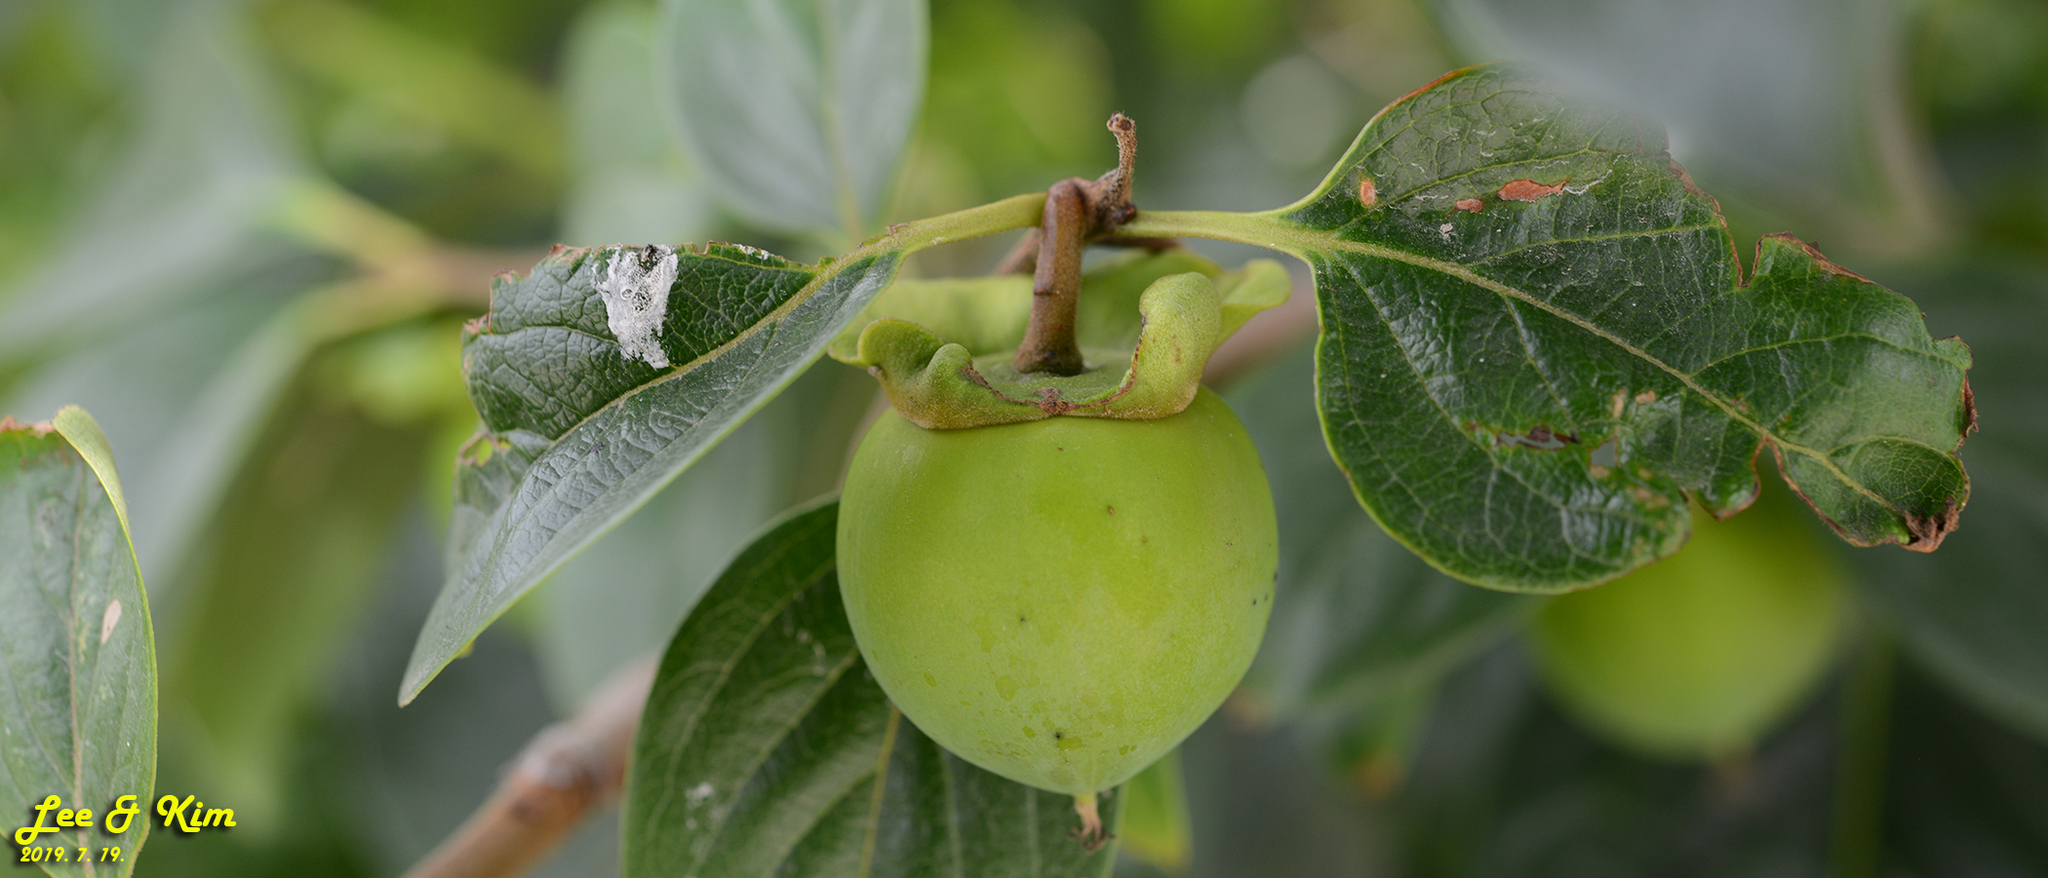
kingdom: Plantae
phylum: Tracheophyta
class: Magnoliopsida
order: Ericales
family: Ebenaceae
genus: Diospyros
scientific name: Diospyros kaki
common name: Persimmon
